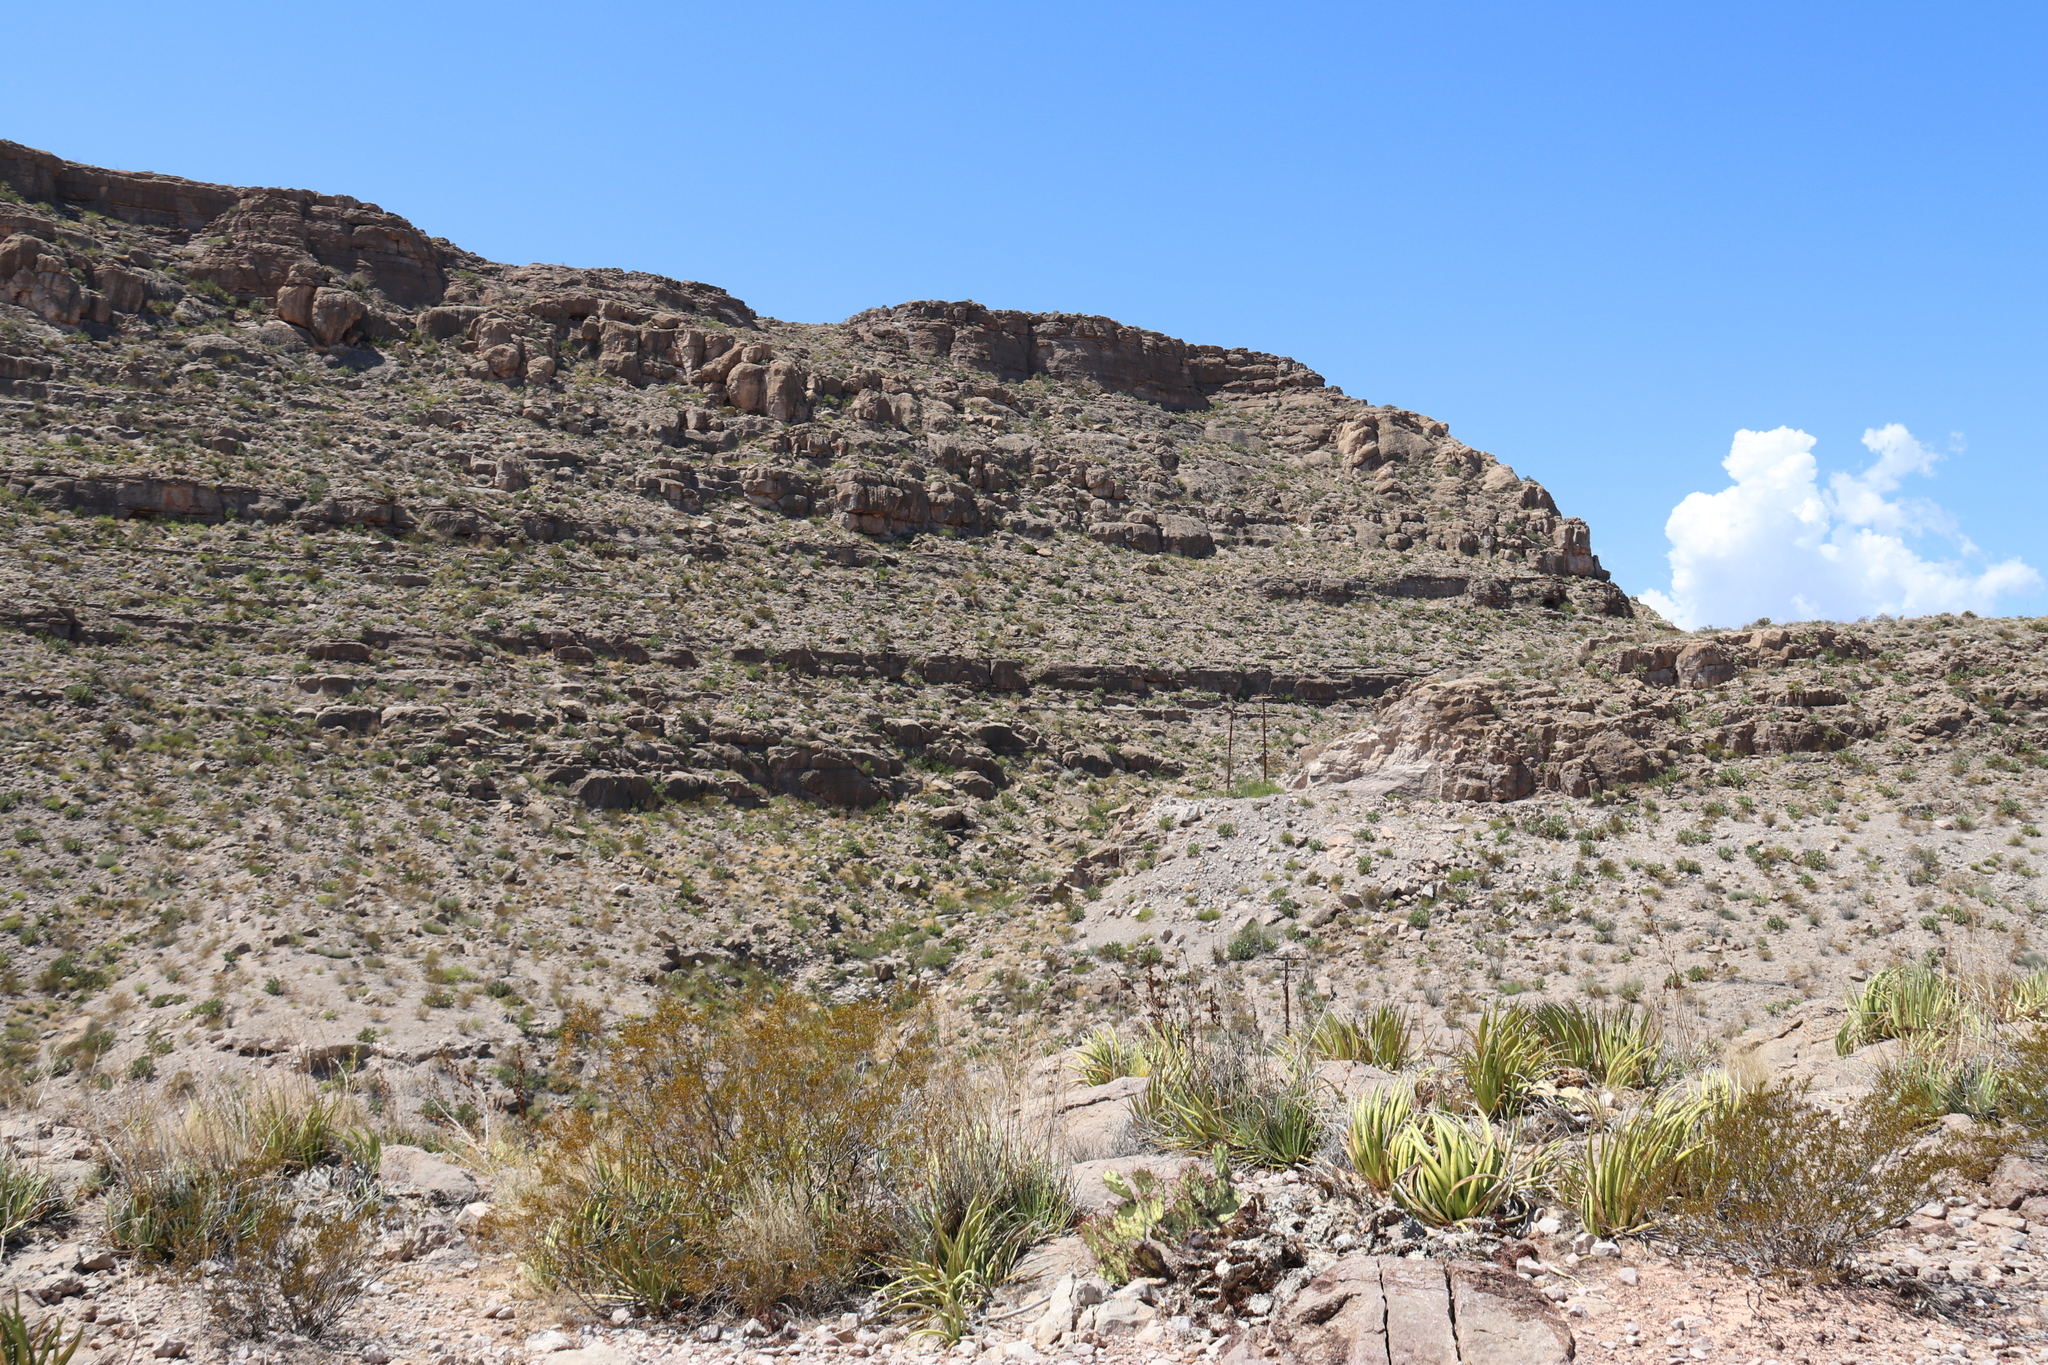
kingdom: Plantae
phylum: Tracheophyta
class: Liliopsida
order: Asparagales
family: Asparagaceae
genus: Agave
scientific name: Agave lechuguilla
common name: Lecheguilla agave
